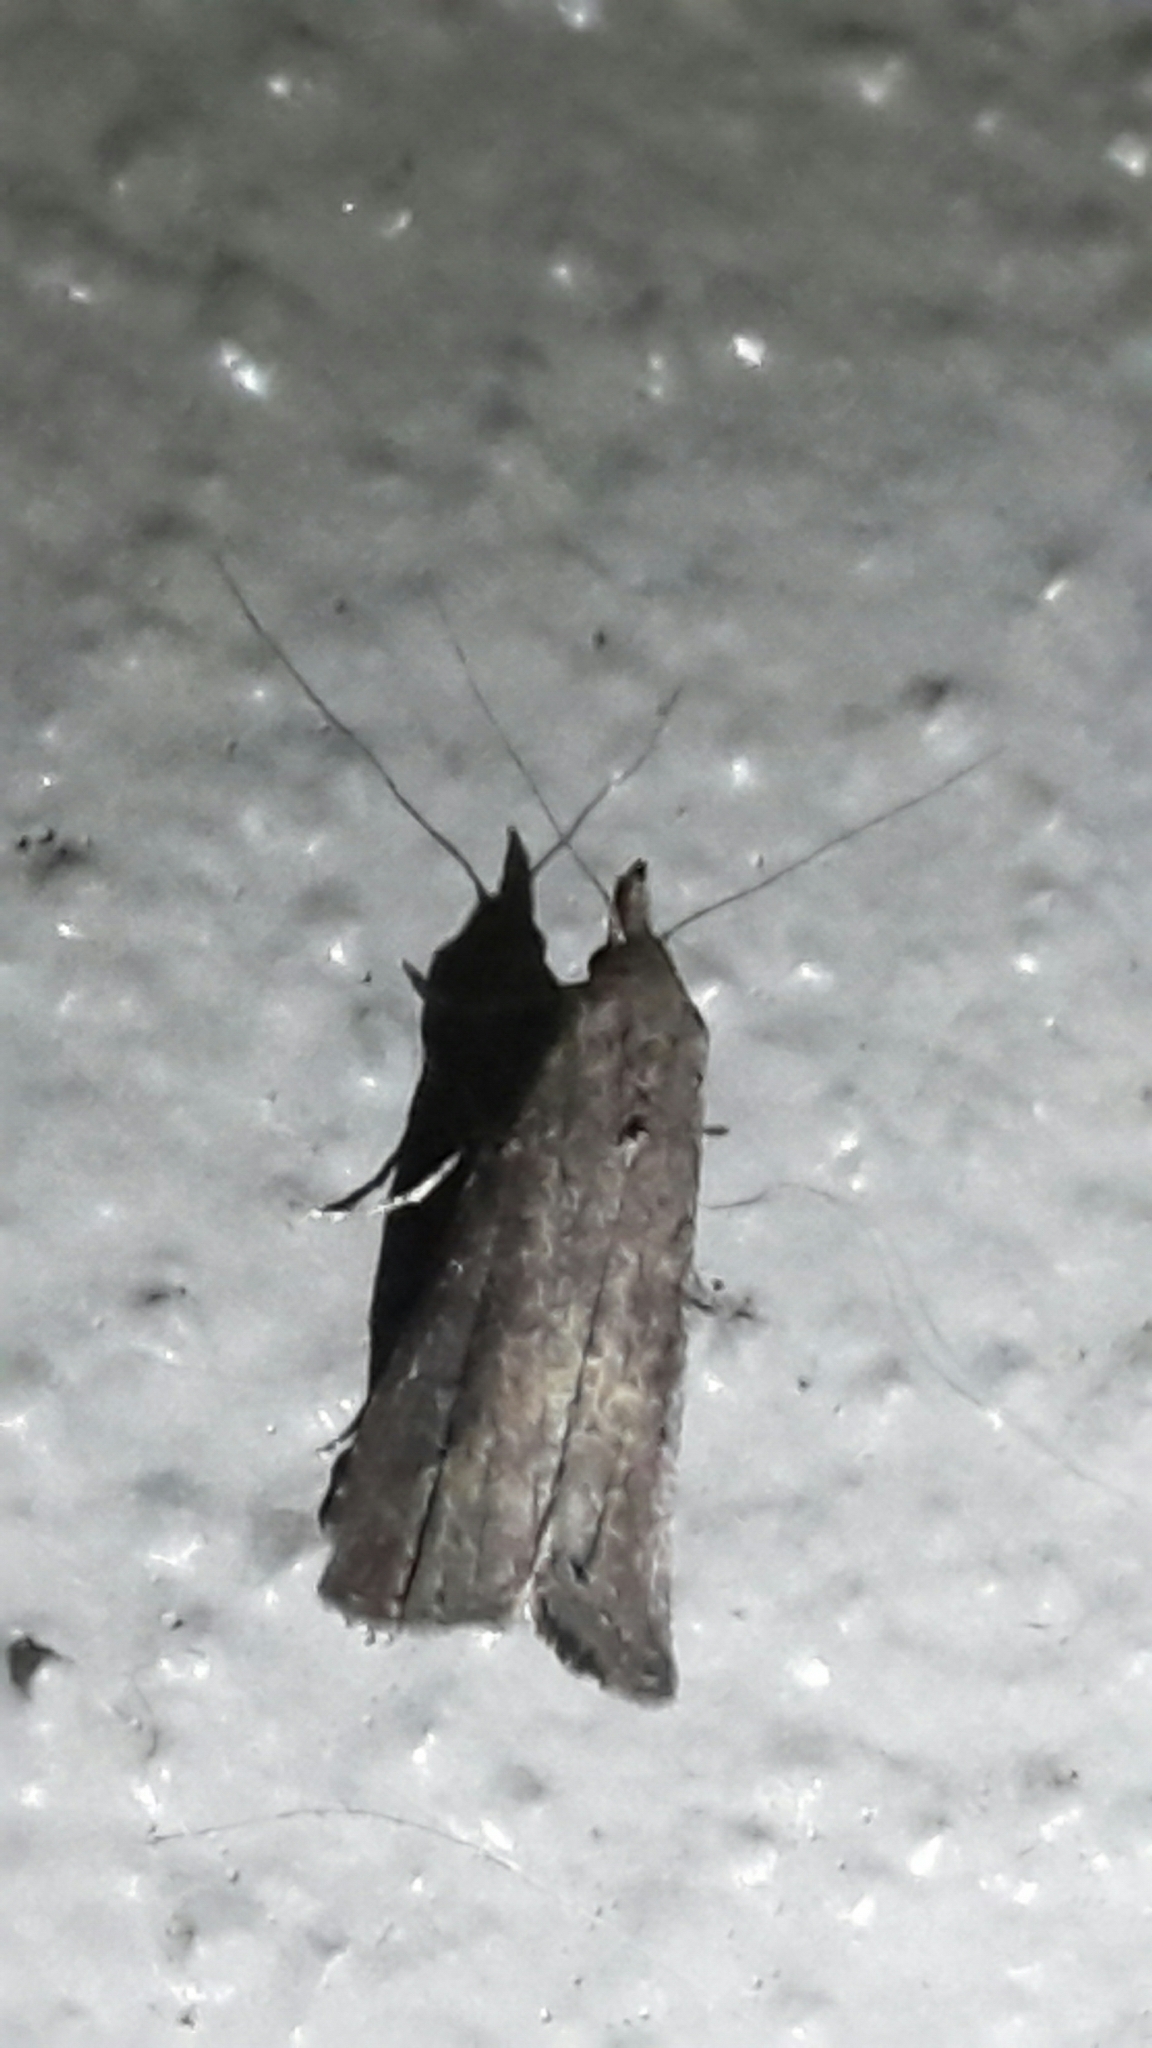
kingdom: Animalia
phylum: Arthropoda
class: Insecta
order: Lepidoptera
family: Erebidae
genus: Schrankia
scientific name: Schrankia costaestrigalis
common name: Pinion-streaked snout
